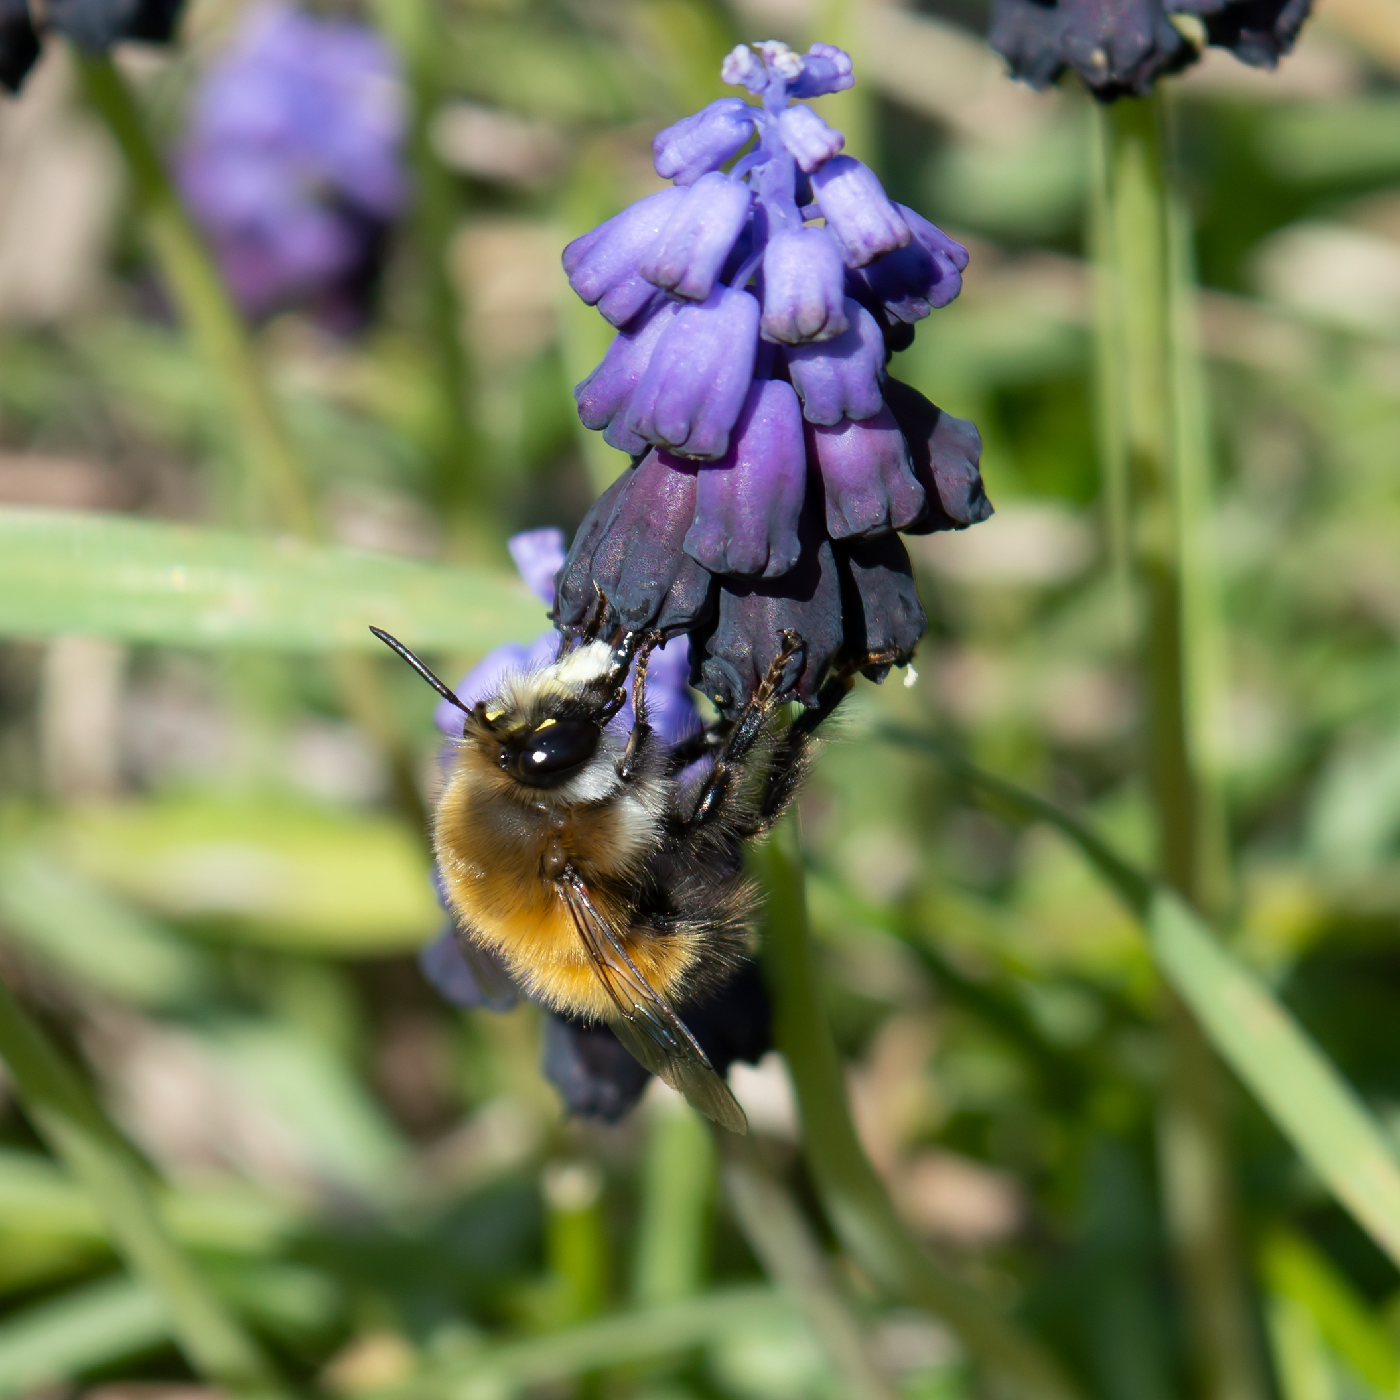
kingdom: Animalia
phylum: Arthropoda
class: Insecta
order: Hymenoptera
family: Apidae
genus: Anthophora
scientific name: Anthophora rubricrus
